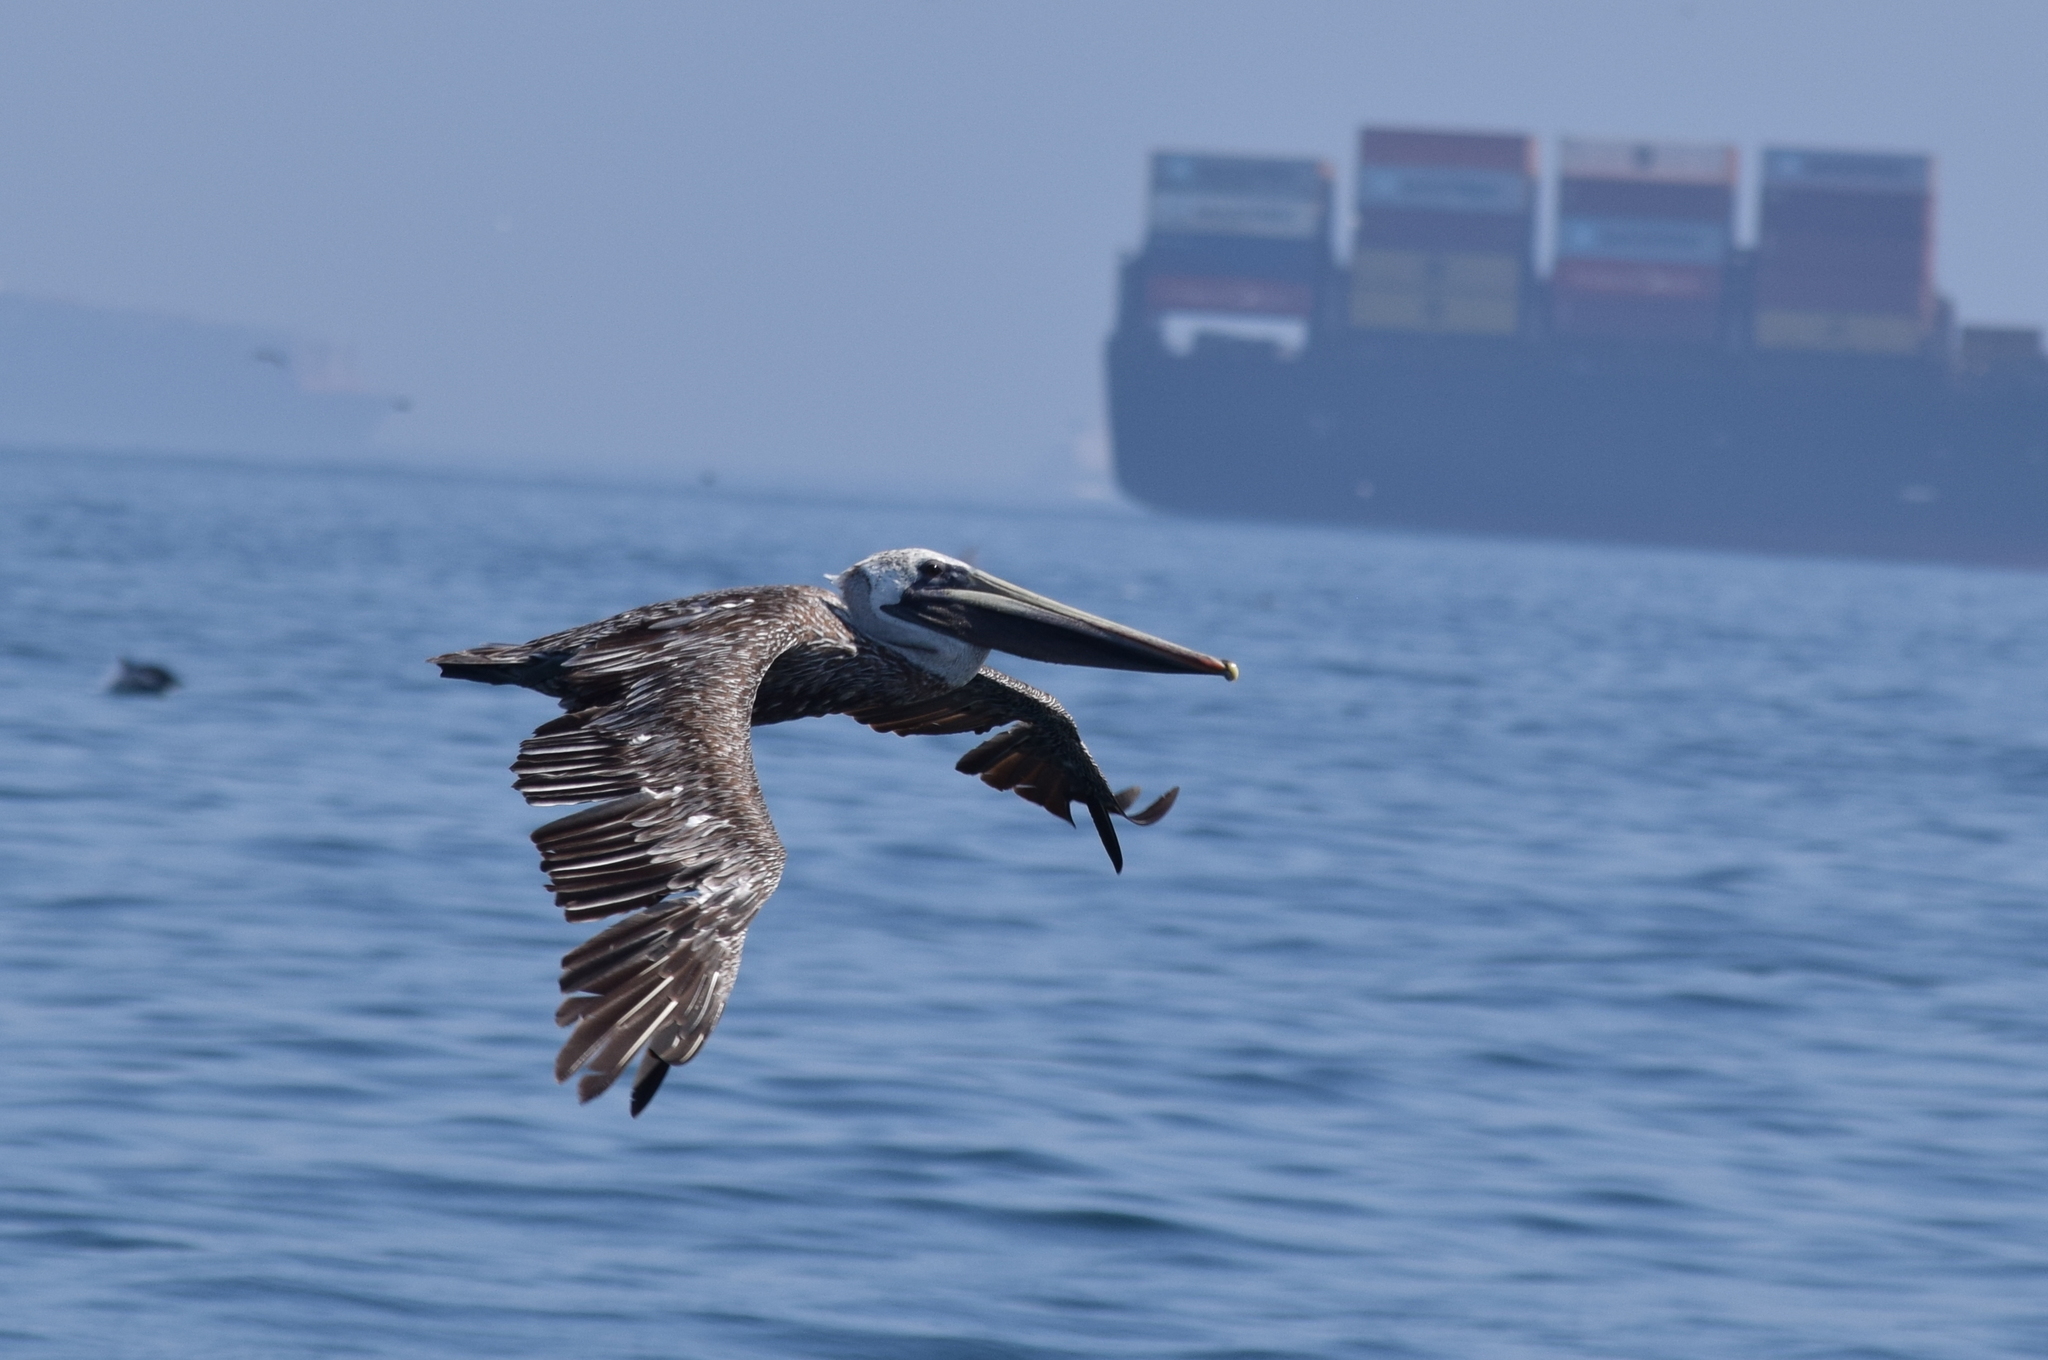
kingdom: Animalia
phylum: Chordata
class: Aves
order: Pelecaniformes
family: Pelecanidae
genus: Pelecanus
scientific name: Pelecanus occidentalis
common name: Brown pelican
